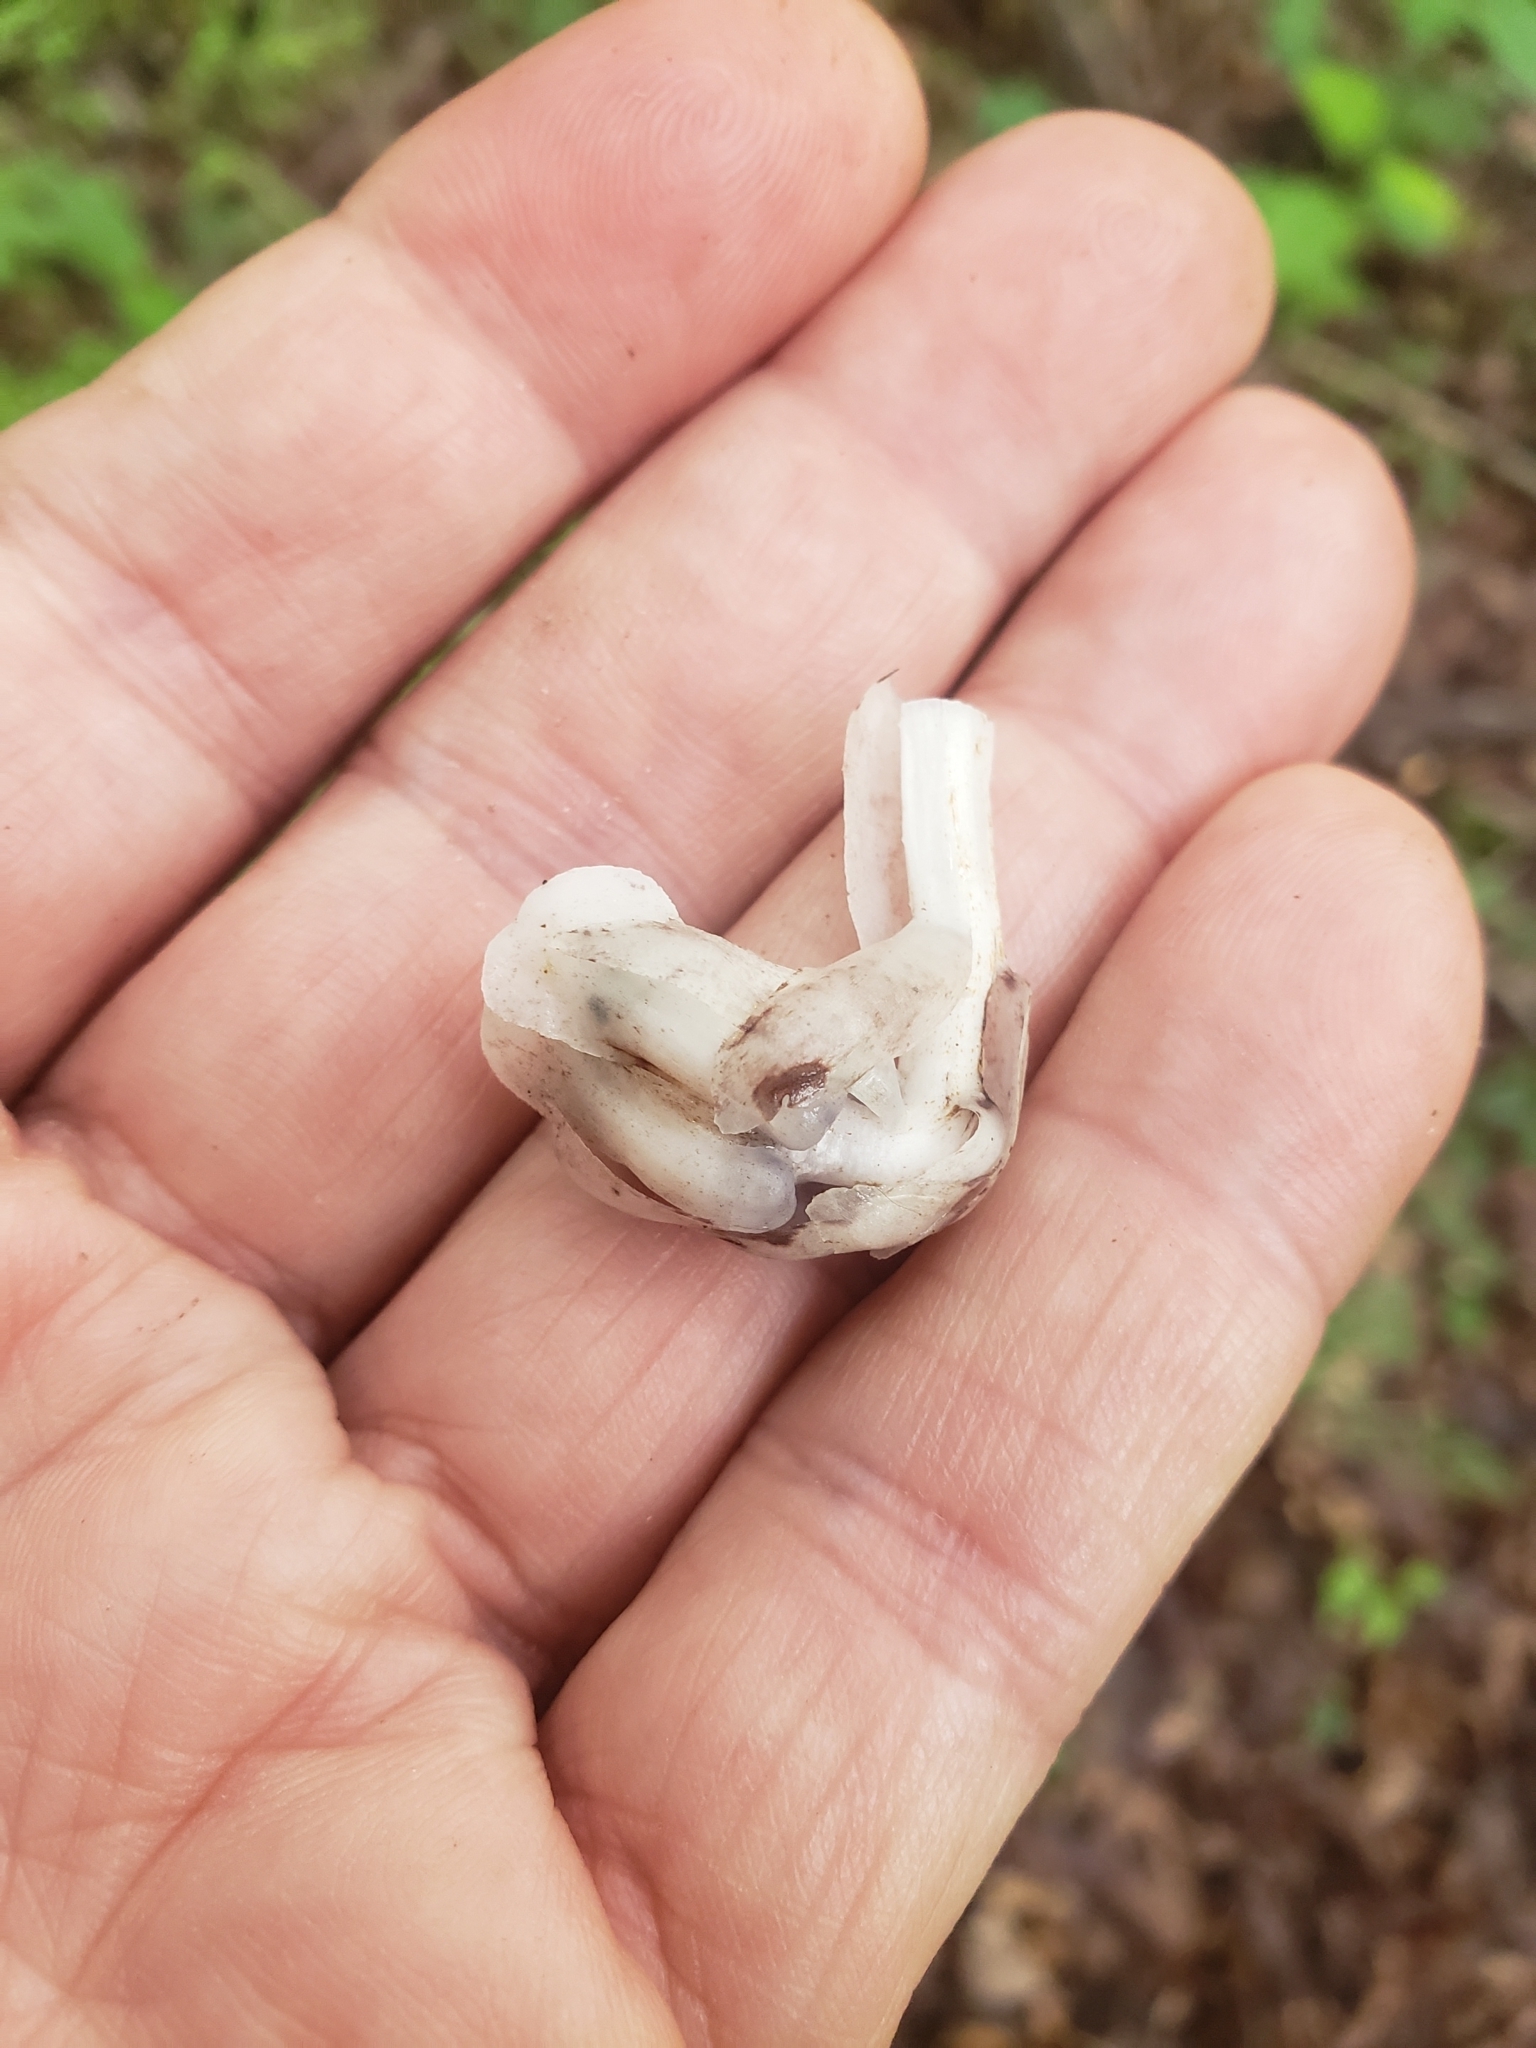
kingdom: Plantae
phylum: Tracheophyta
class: Magnoliopsida
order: Ericales
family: Ericaceae
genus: Monotropa
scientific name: Monotropa uniflora
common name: Convulsion root
